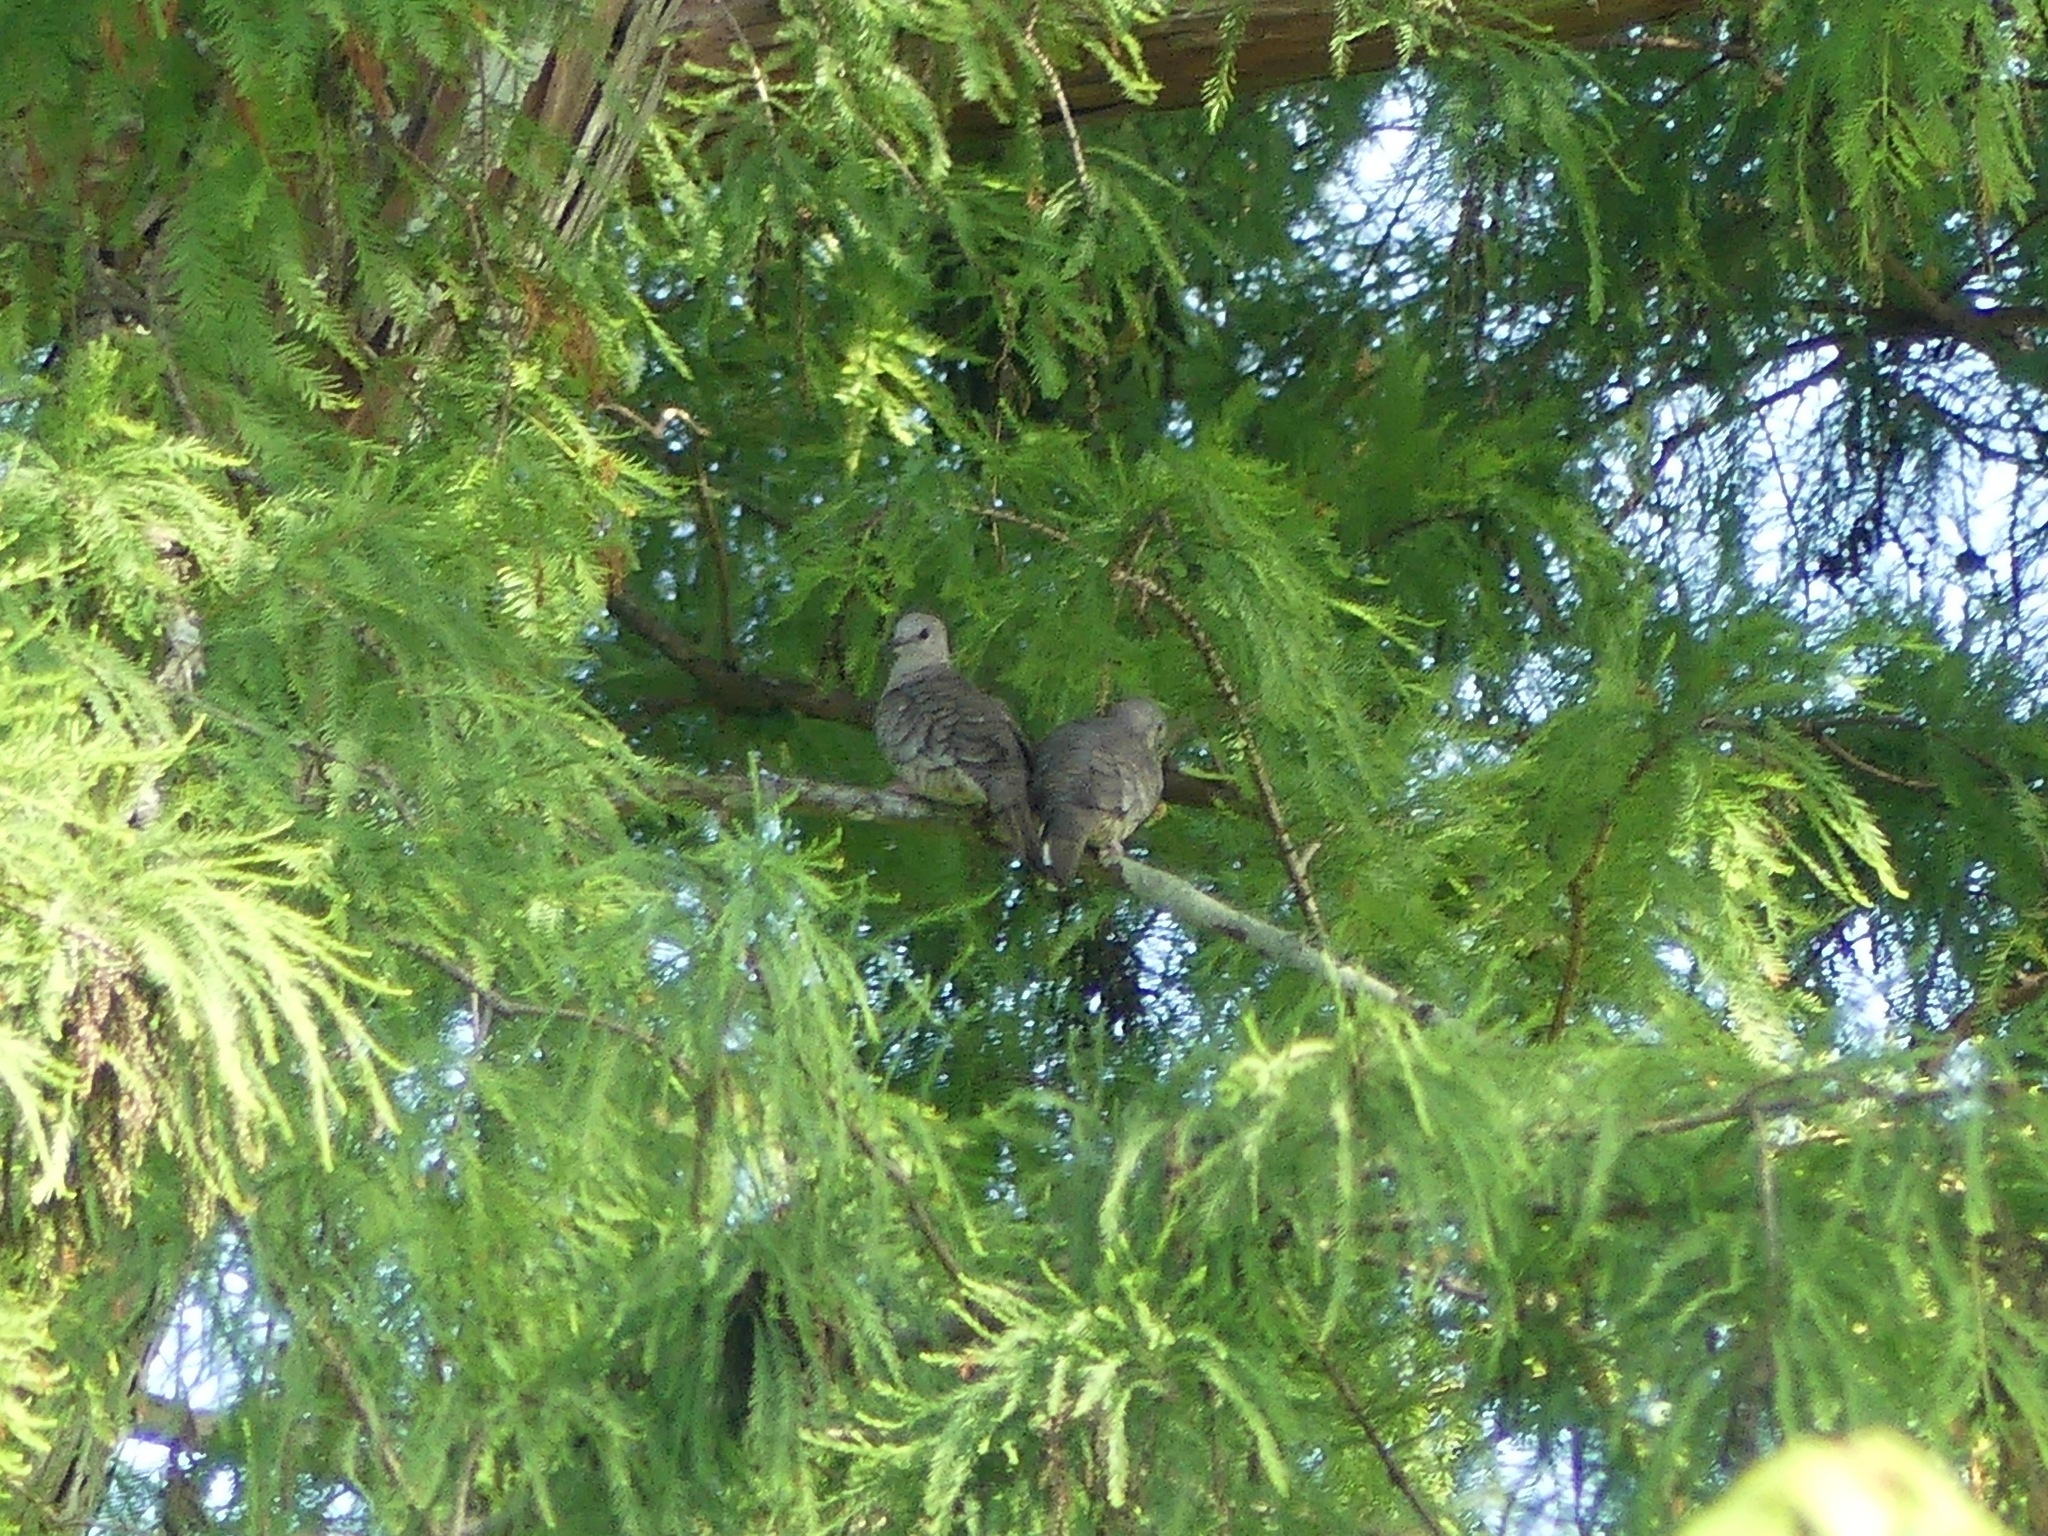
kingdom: Animalia
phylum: Chordata
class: Aves
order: Columbiformes
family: Columbidae
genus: Columbina
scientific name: Columbina inca
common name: Inca dove
